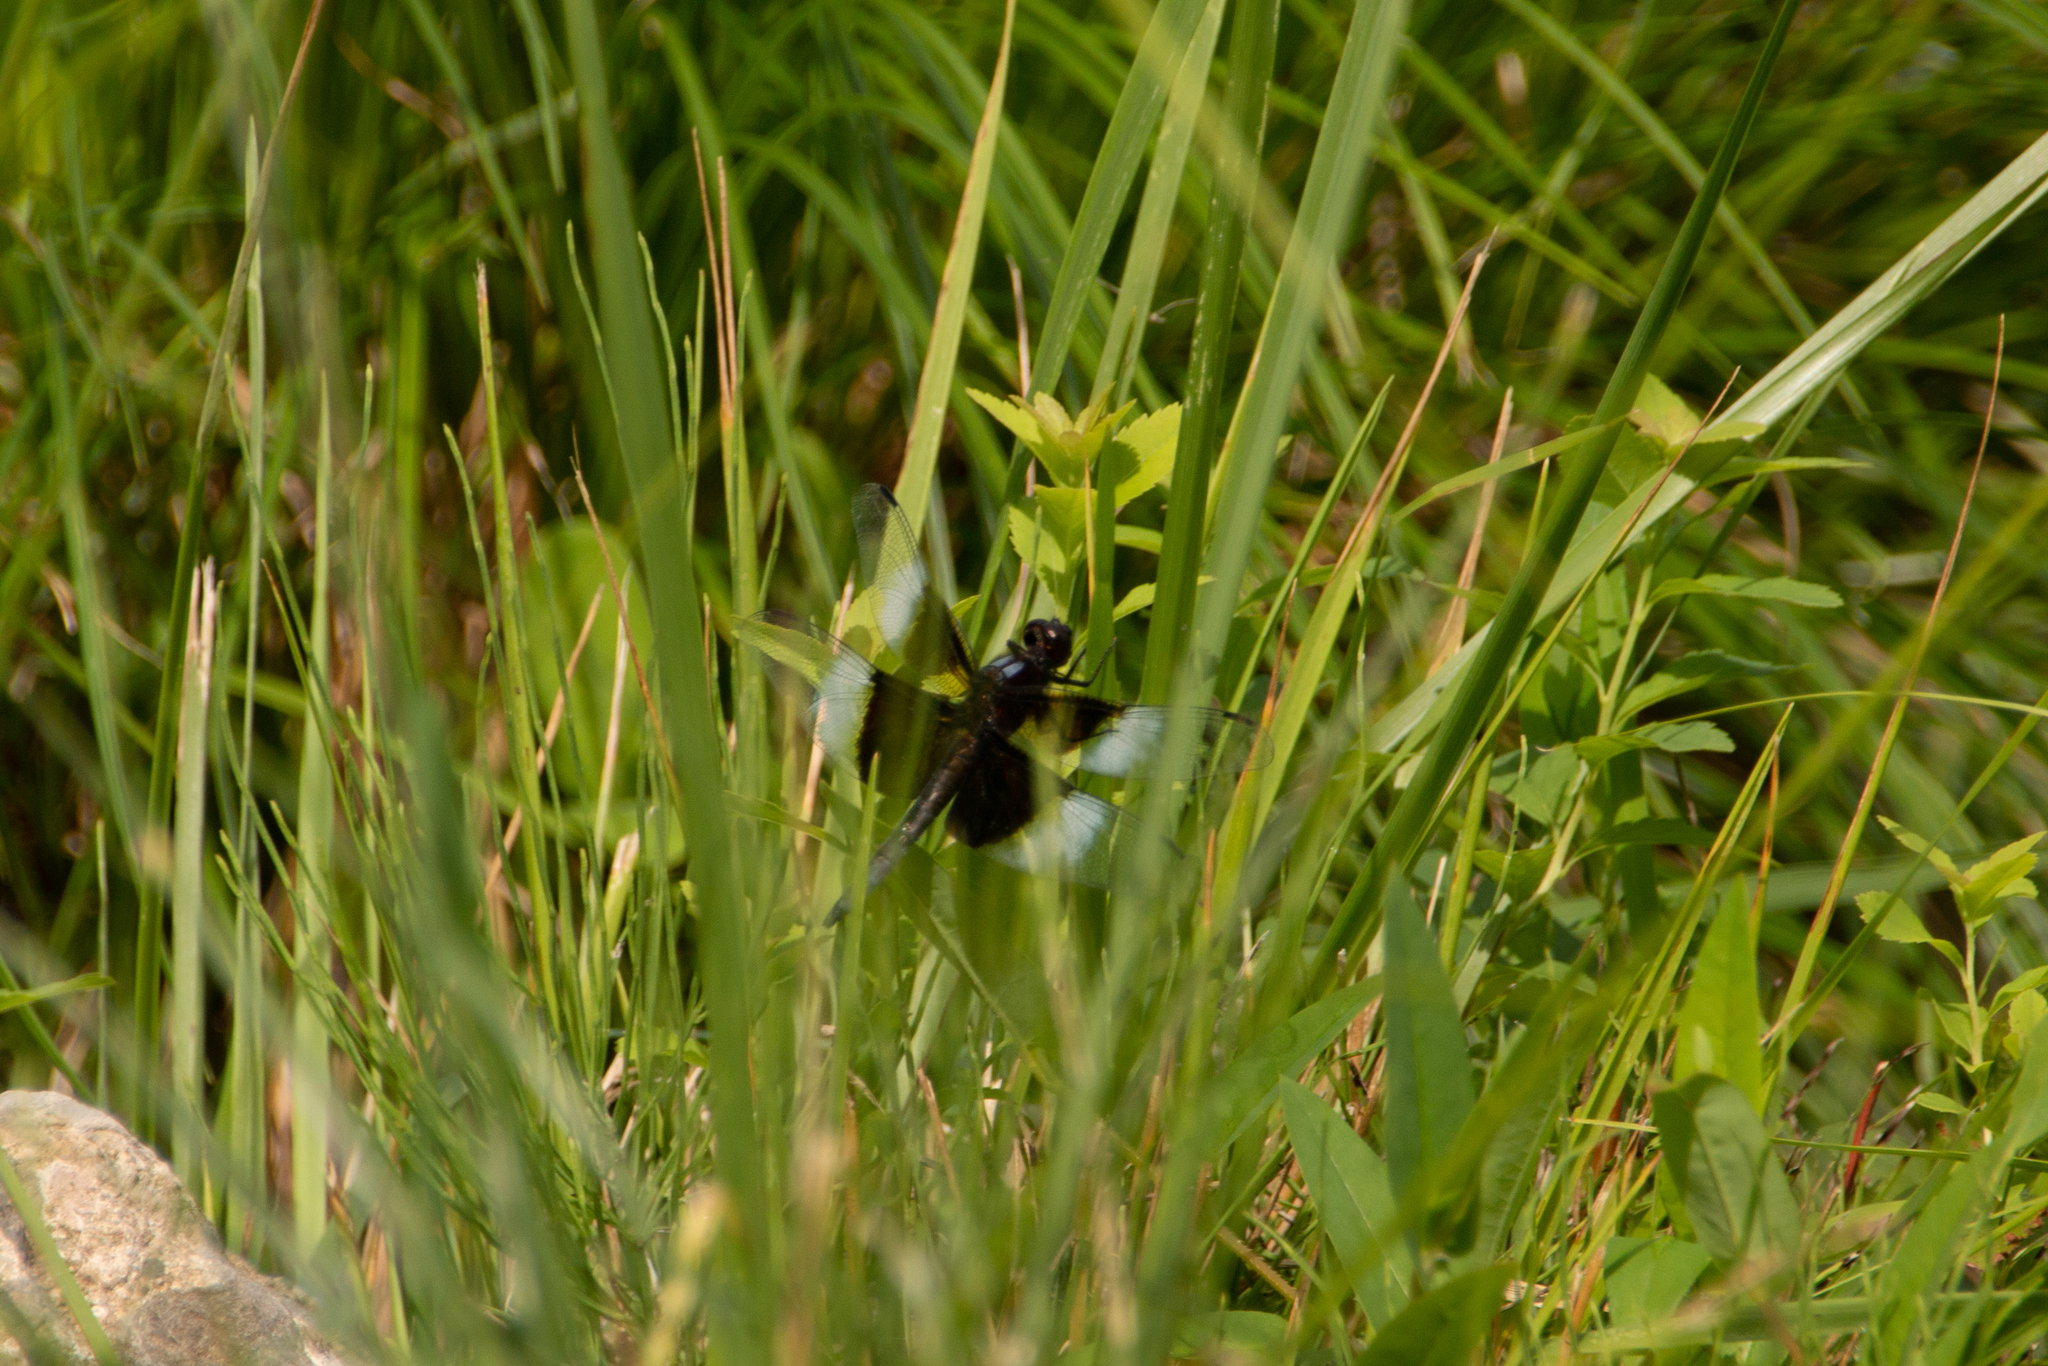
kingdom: Animalia
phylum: Arthropoda
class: Insecta
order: Odonata
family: Libellulidae
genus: Libellula
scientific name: Libellula luctuosa
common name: Widow skimmer
